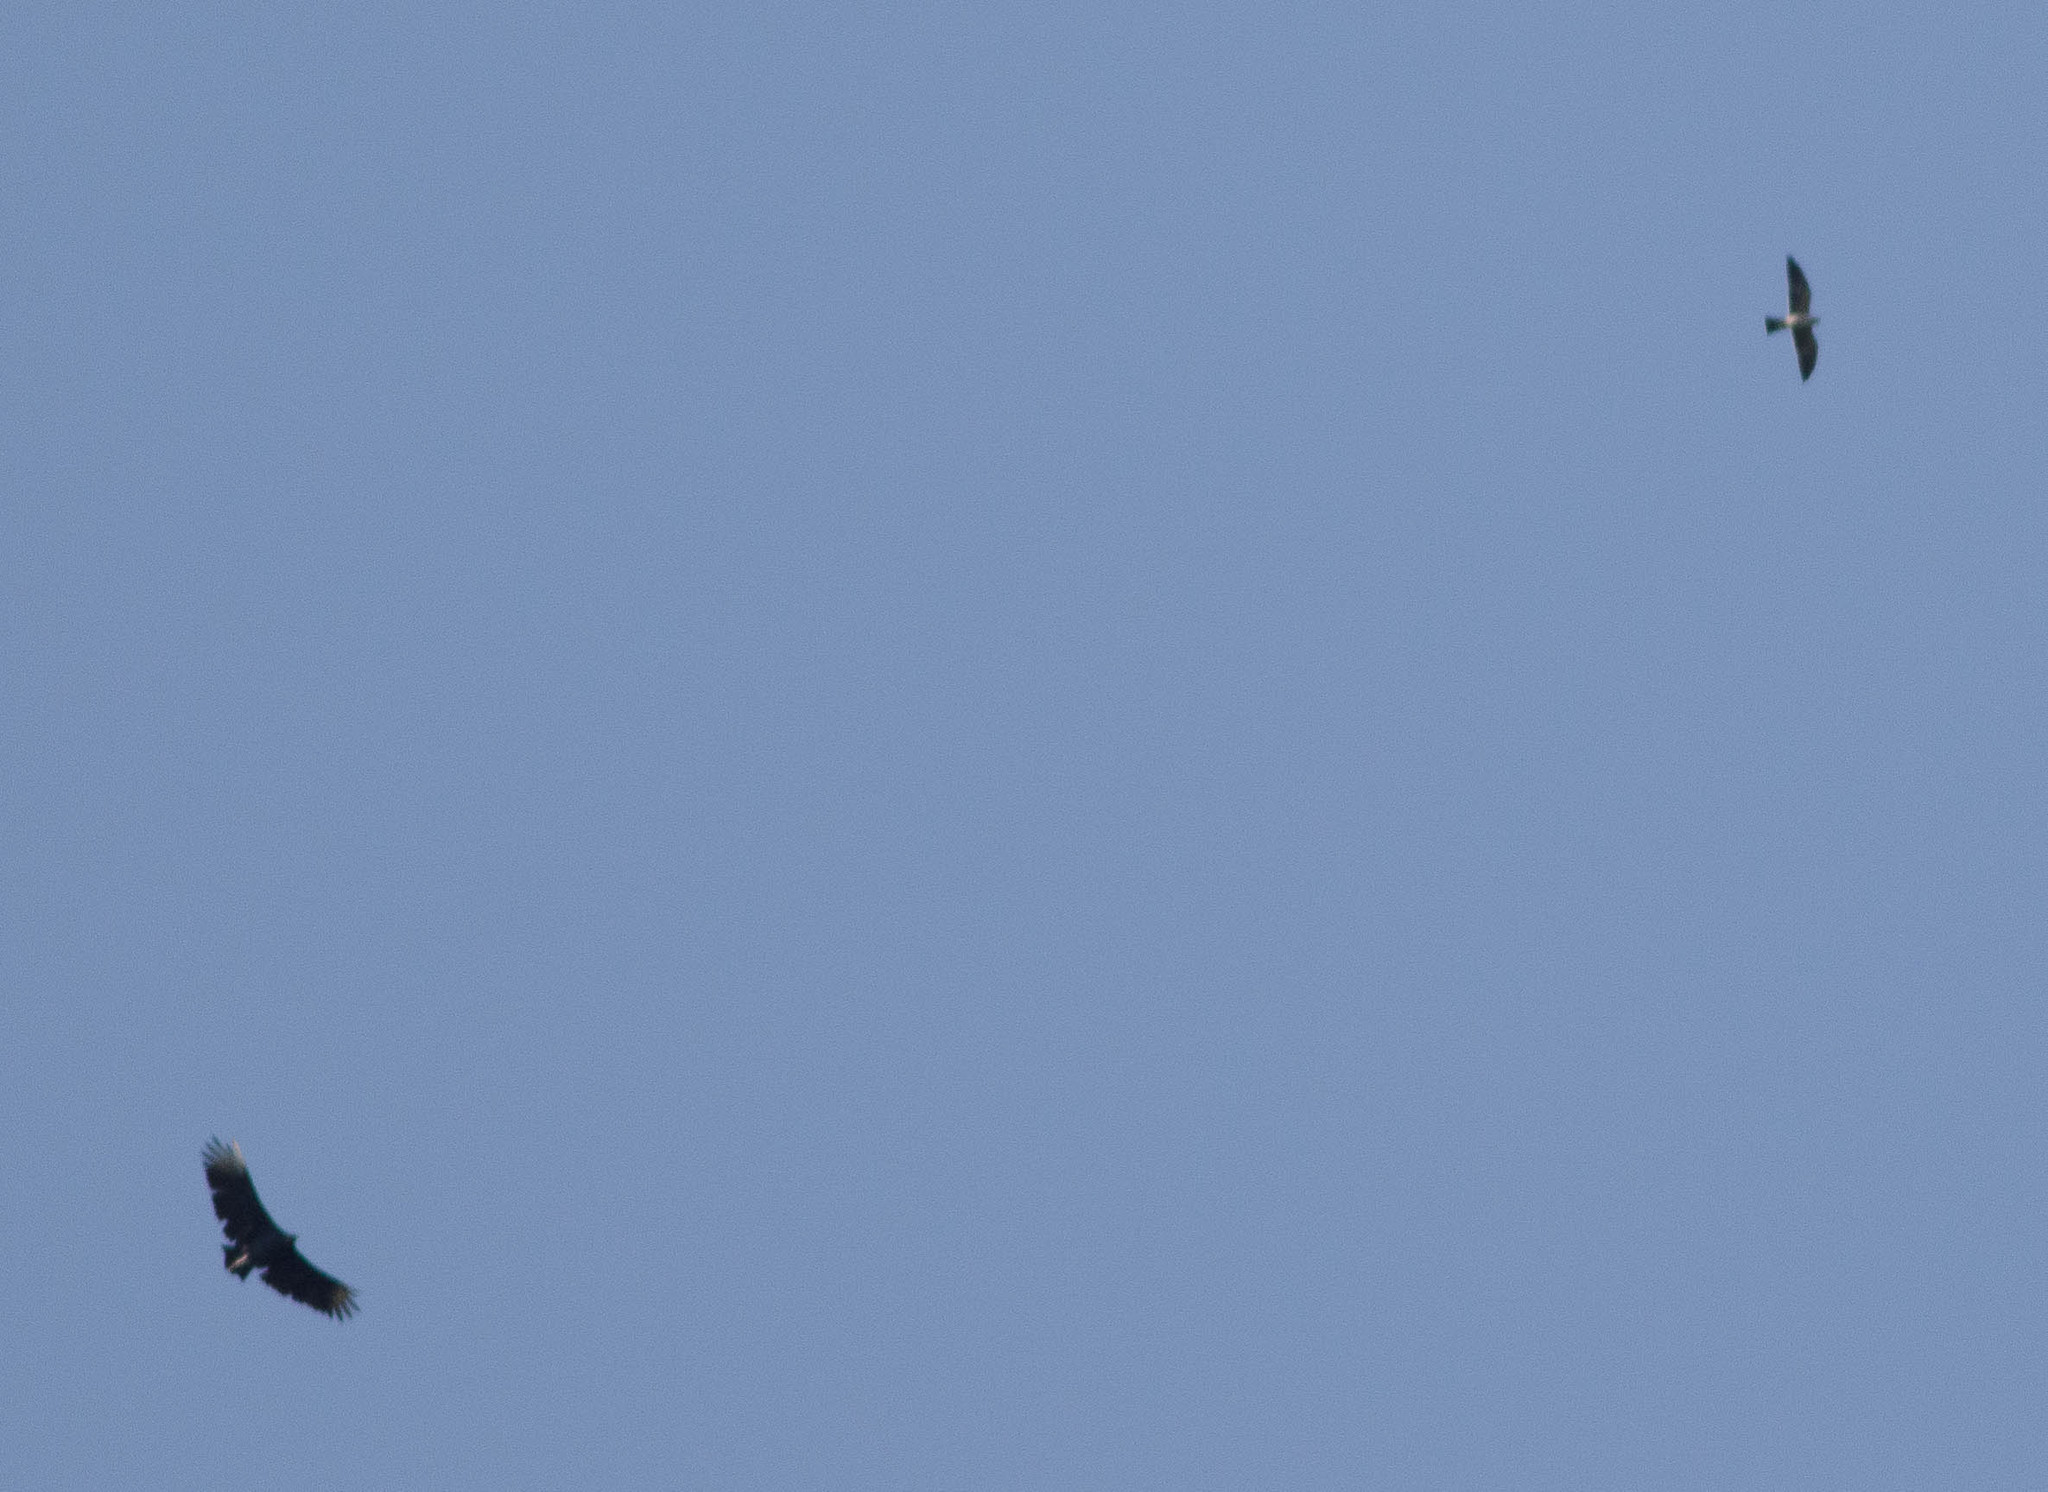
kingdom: Animalia
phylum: Chordata
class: Aves
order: Accipitriformes
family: Cathartidae
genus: Coragyps
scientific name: Coragyps atratus
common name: Black vulture
